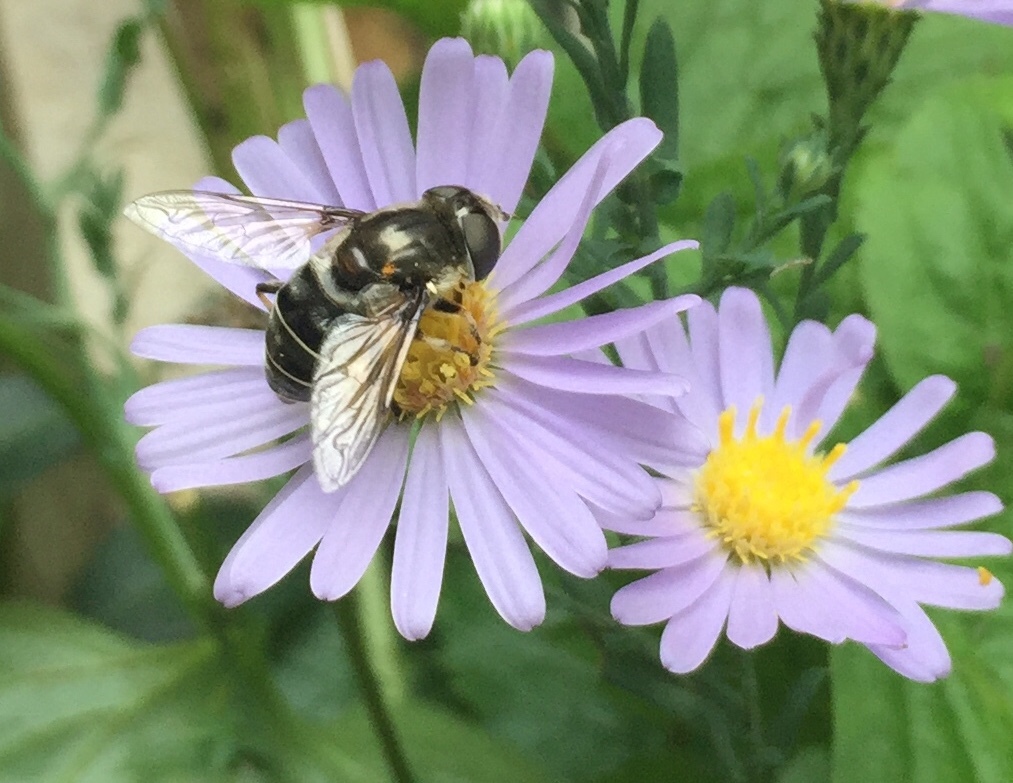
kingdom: Animalia
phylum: Arthropoda
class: Insecta
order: Diptera
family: Syrphidae
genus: Eristalis
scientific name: Eristalis dimidiata
